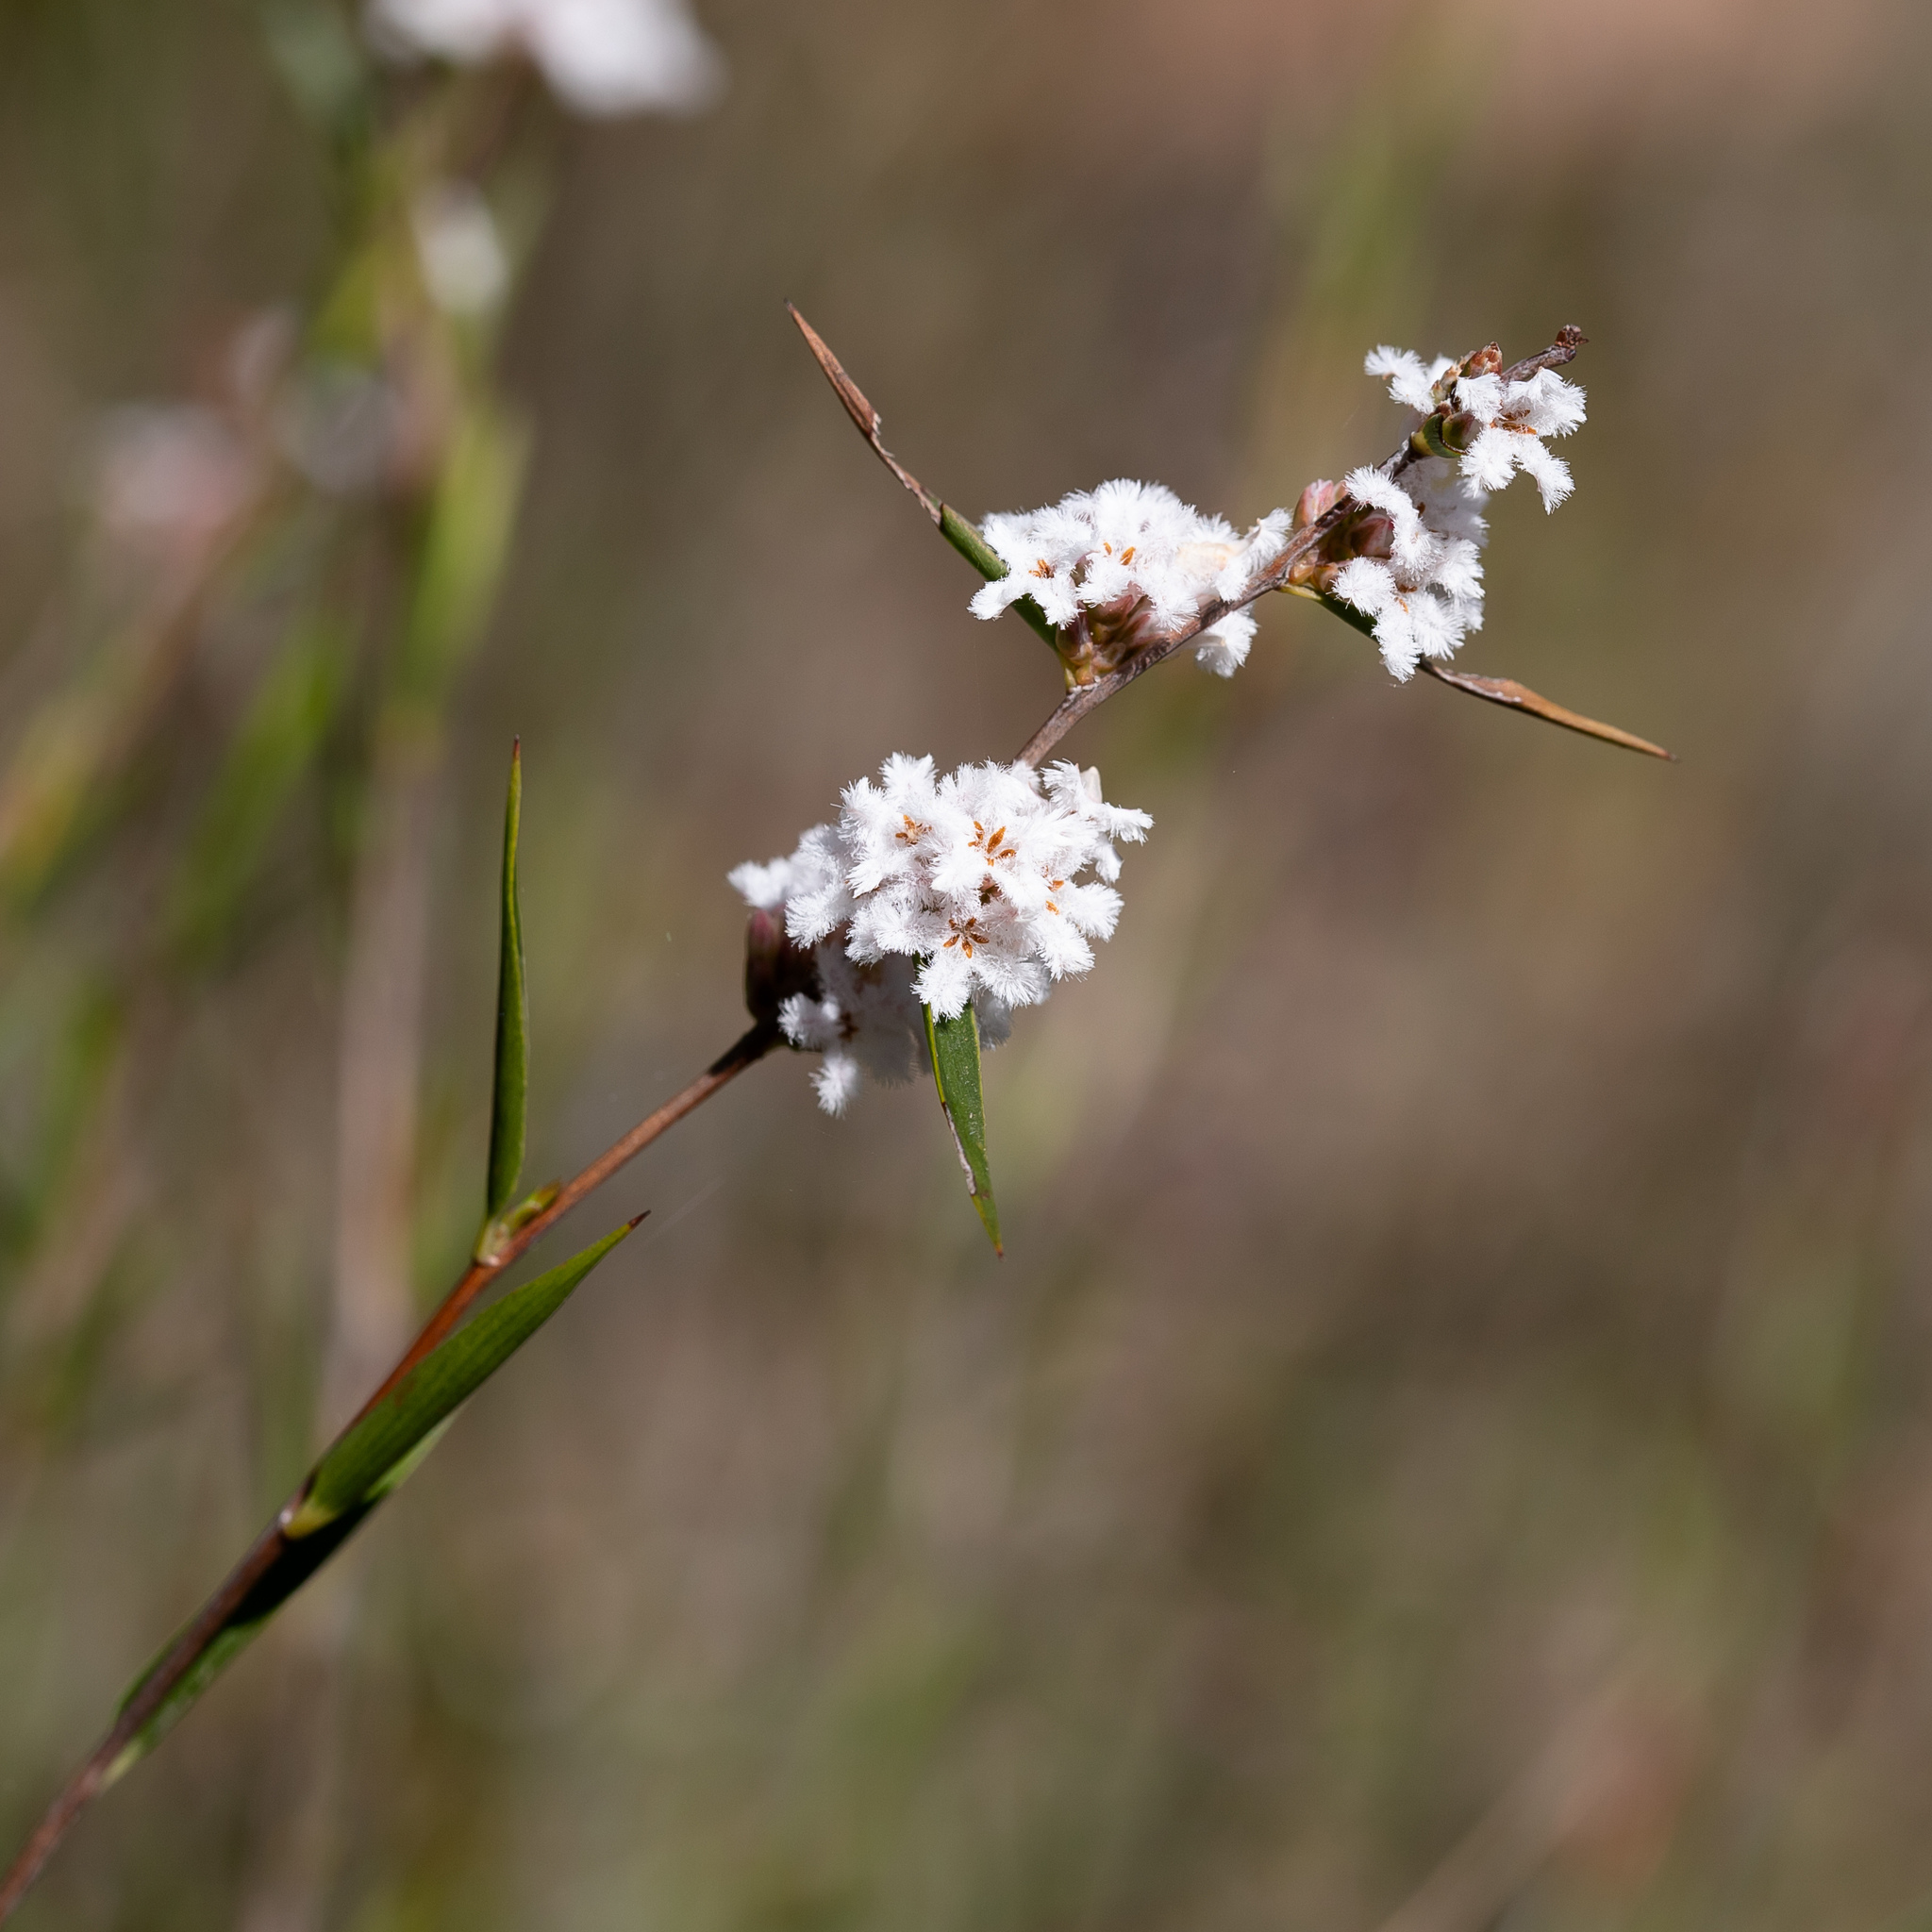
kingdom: Plantae
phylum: Tracheophyta
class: Magnoliopsida
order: Ericales
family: Ericaceae
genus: Leucopogon
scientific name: Leucopogon virgatus
